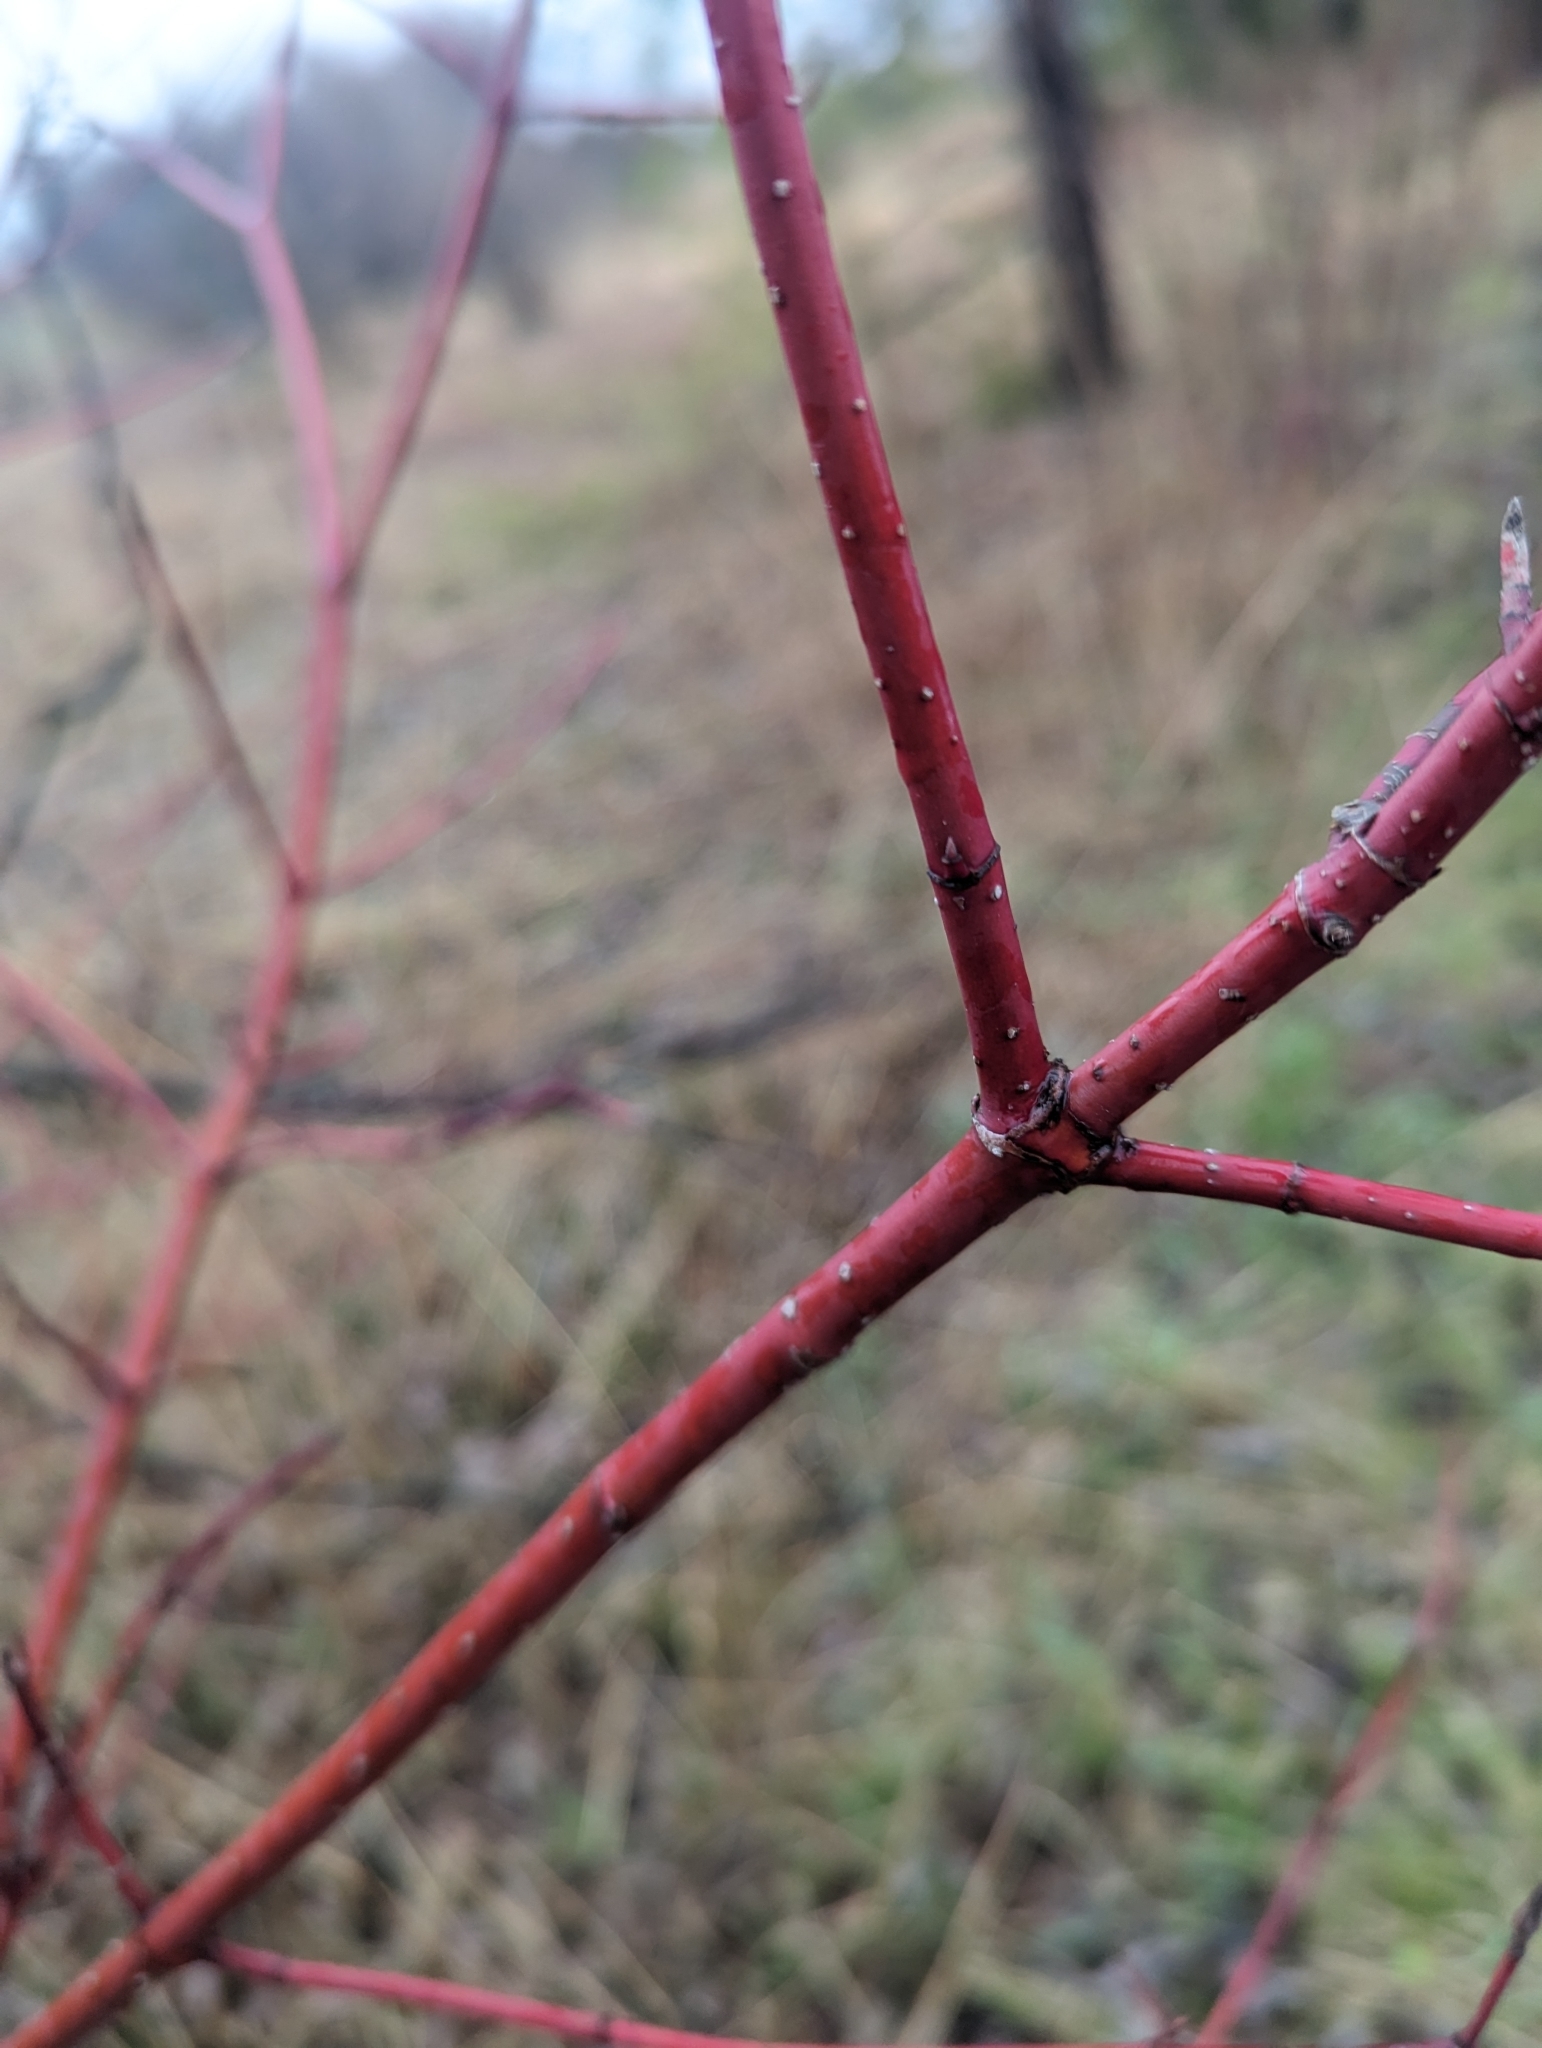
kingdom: Plantae
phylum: Tracheophyta
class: Magnoliopsida
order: Cornales
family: Cornaceae
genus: Cornus
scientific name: Cornus sericea
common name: Red-osier dogwood
